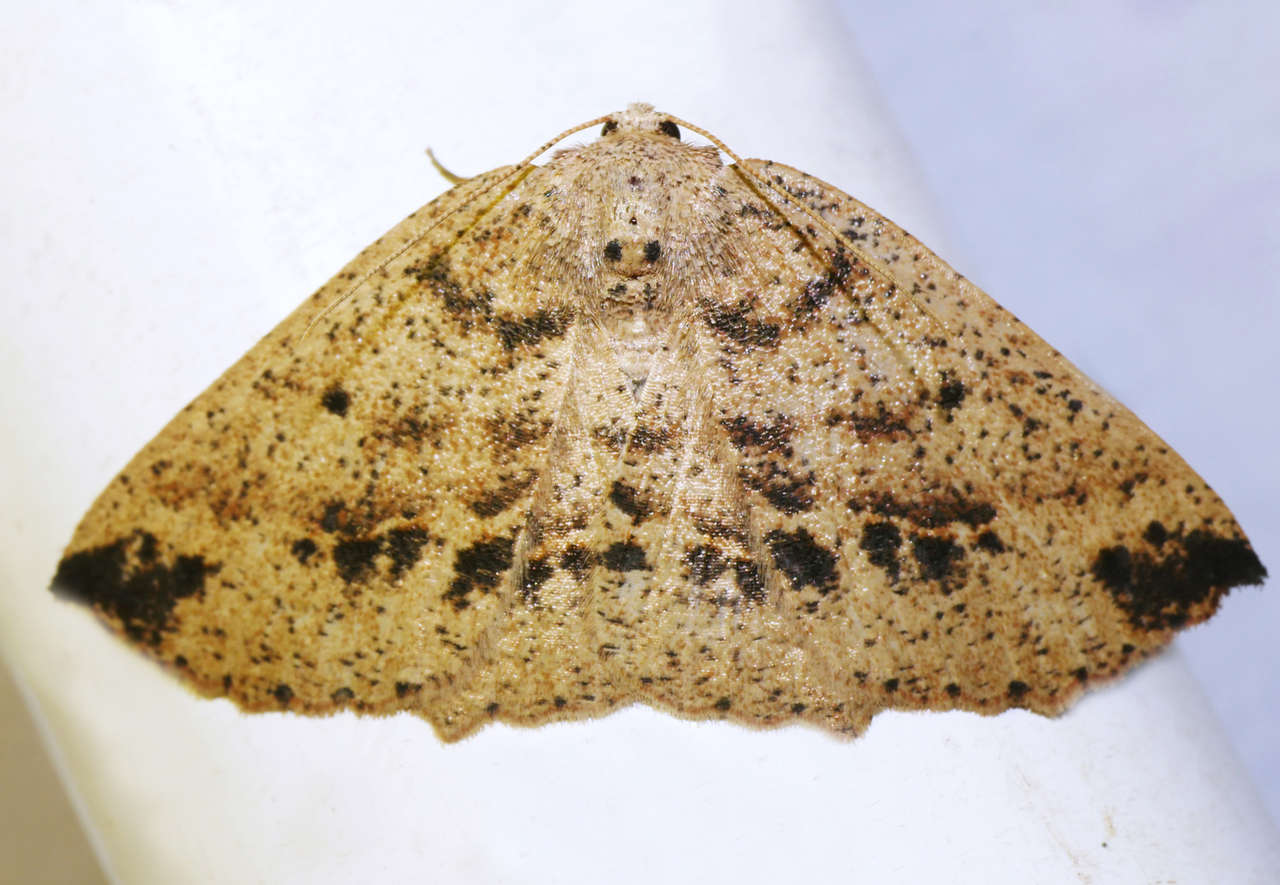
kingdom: Animalia
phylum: Arthropoda
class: Insecta
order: Lepidoptera
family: Geometridae
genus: Xenomusa
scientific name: Xenomusa
